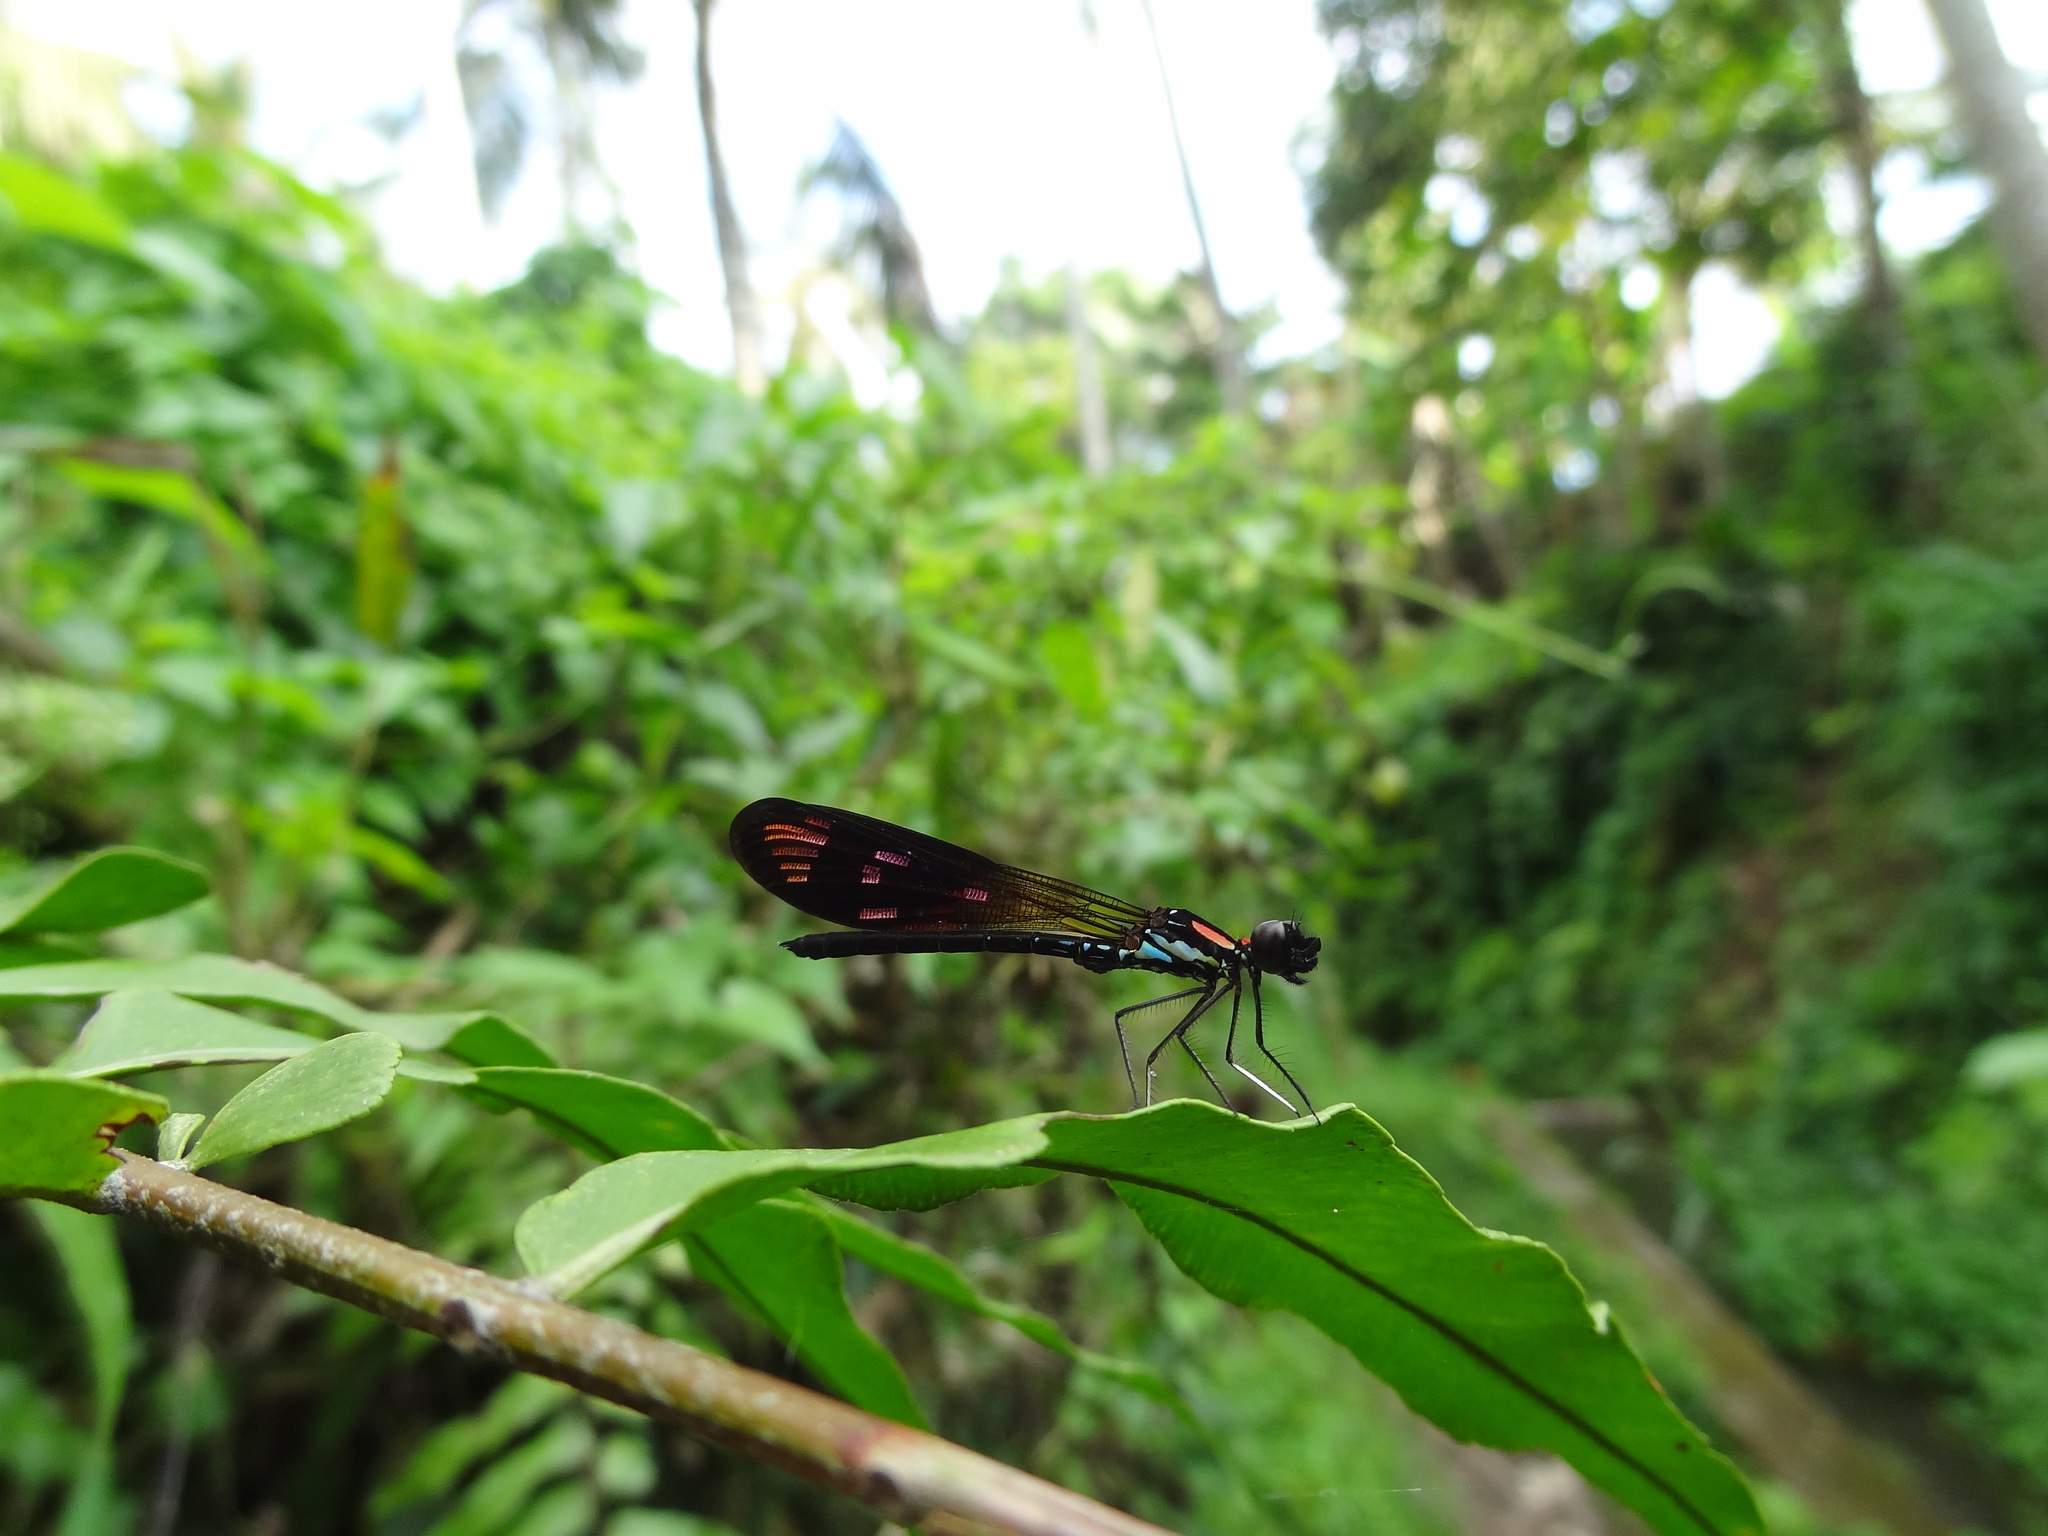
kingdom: Animalia
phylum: Arthropoda
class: Insecta
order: Odonata
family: Chlorocyphidae
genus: Heliocypha
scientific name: Heliocypha fenestrata
